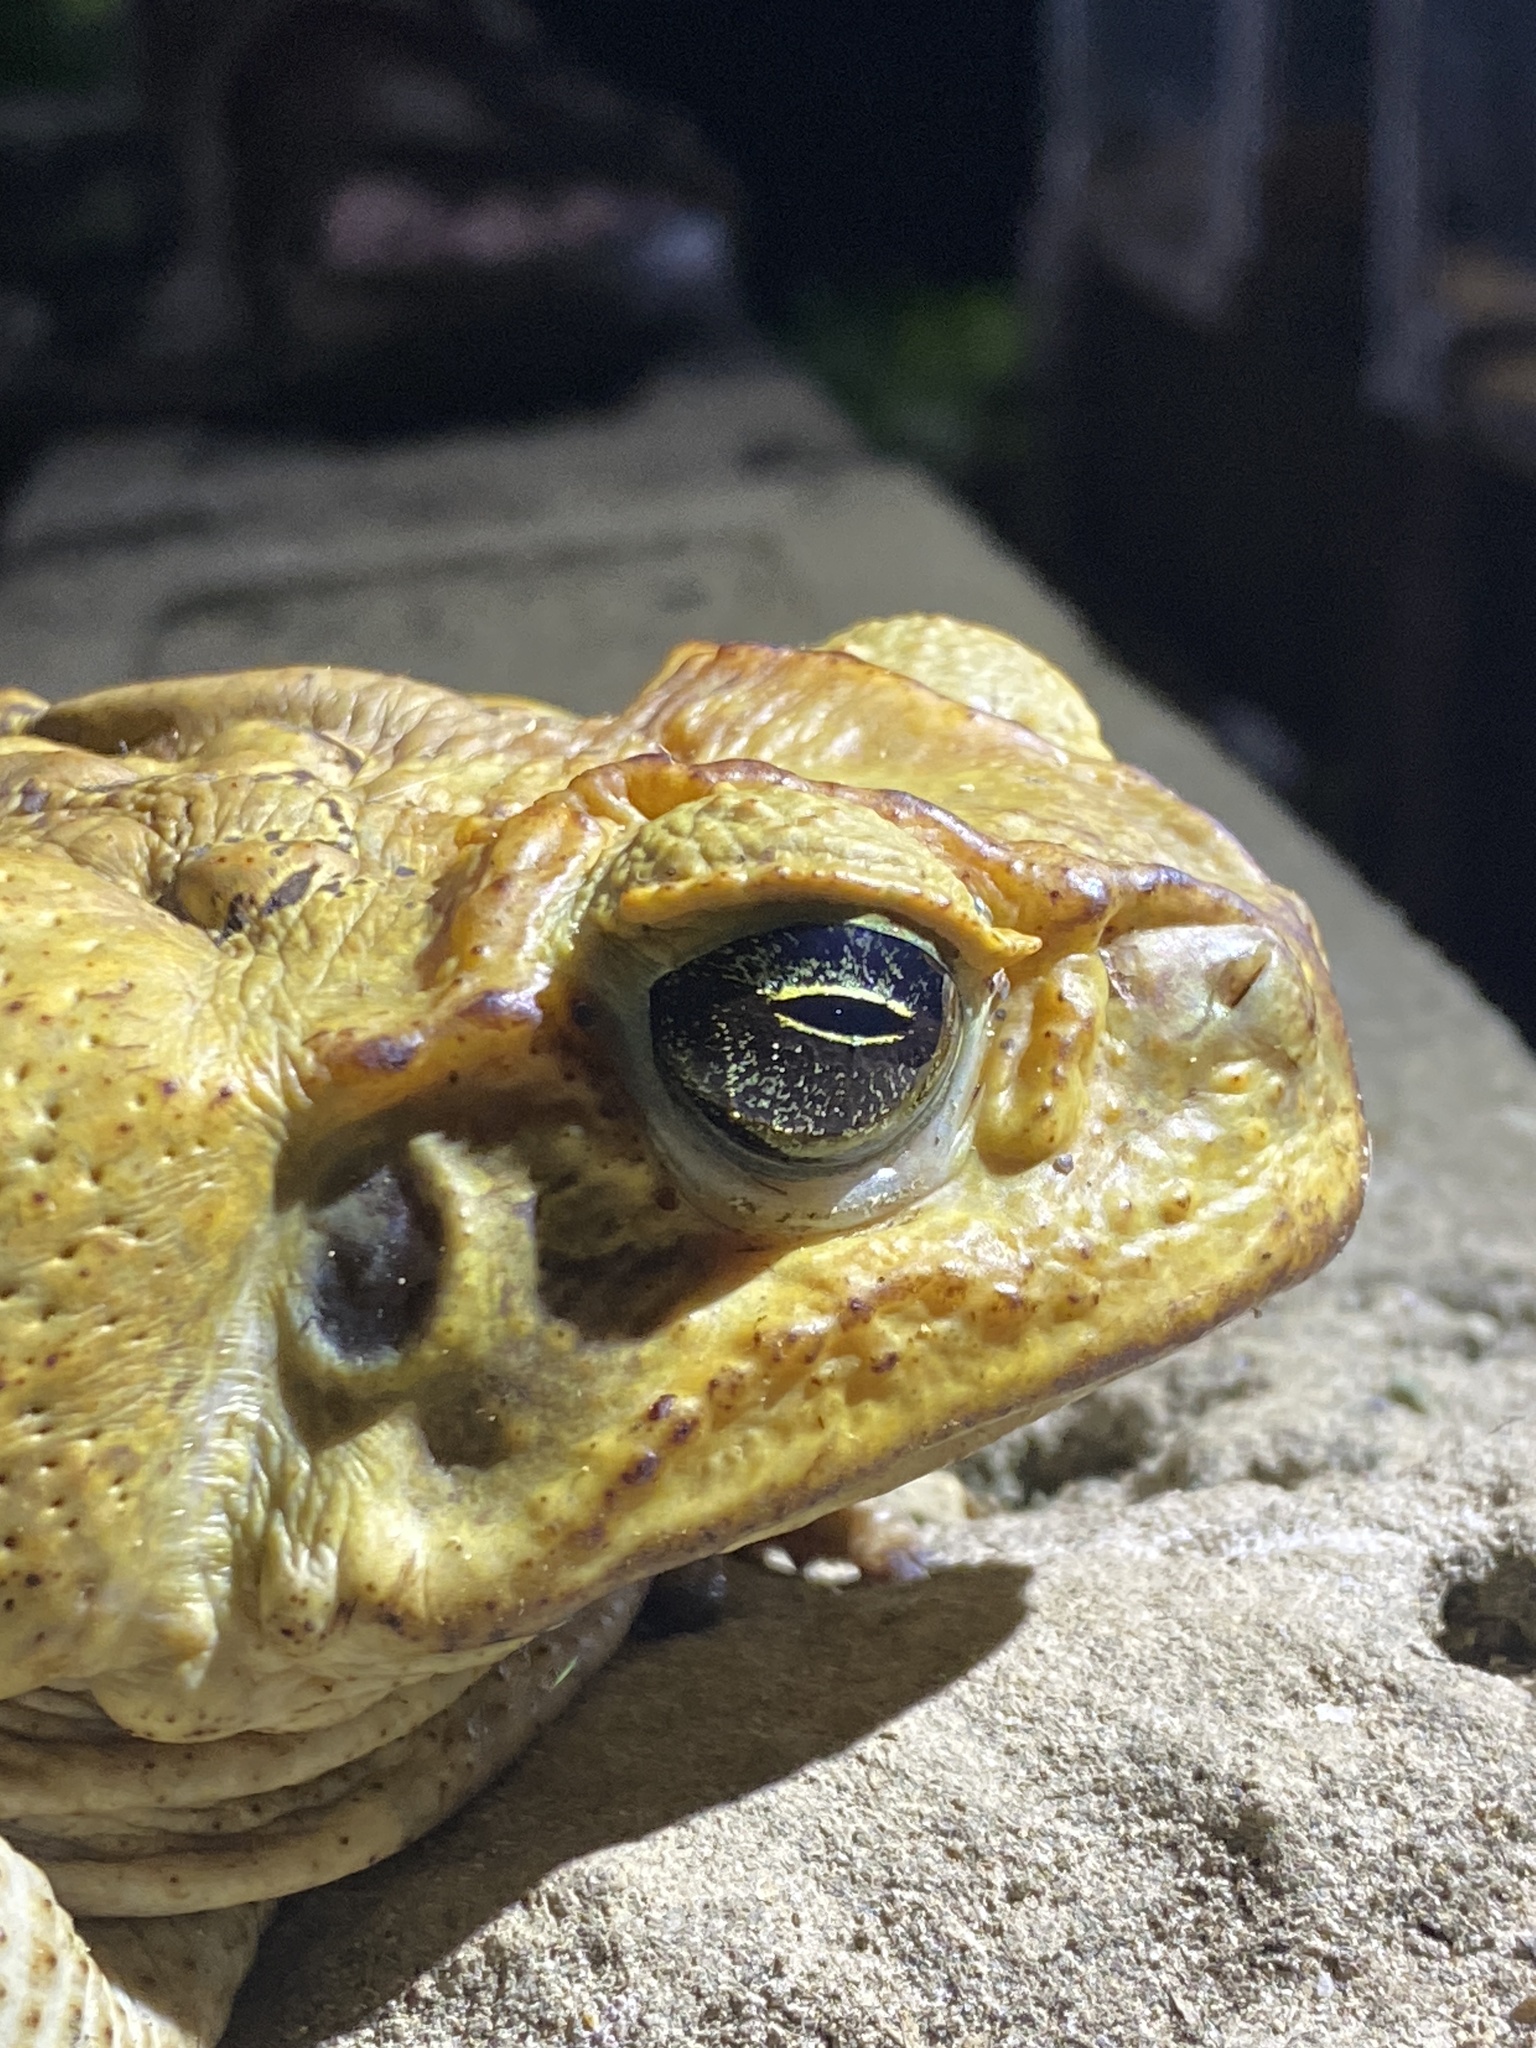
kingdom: Animalia
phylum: Chordata
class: Amphibia
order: Anura
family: Bufonidae
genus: Rhinella
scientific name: Rhinella marina
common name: Cane toad
